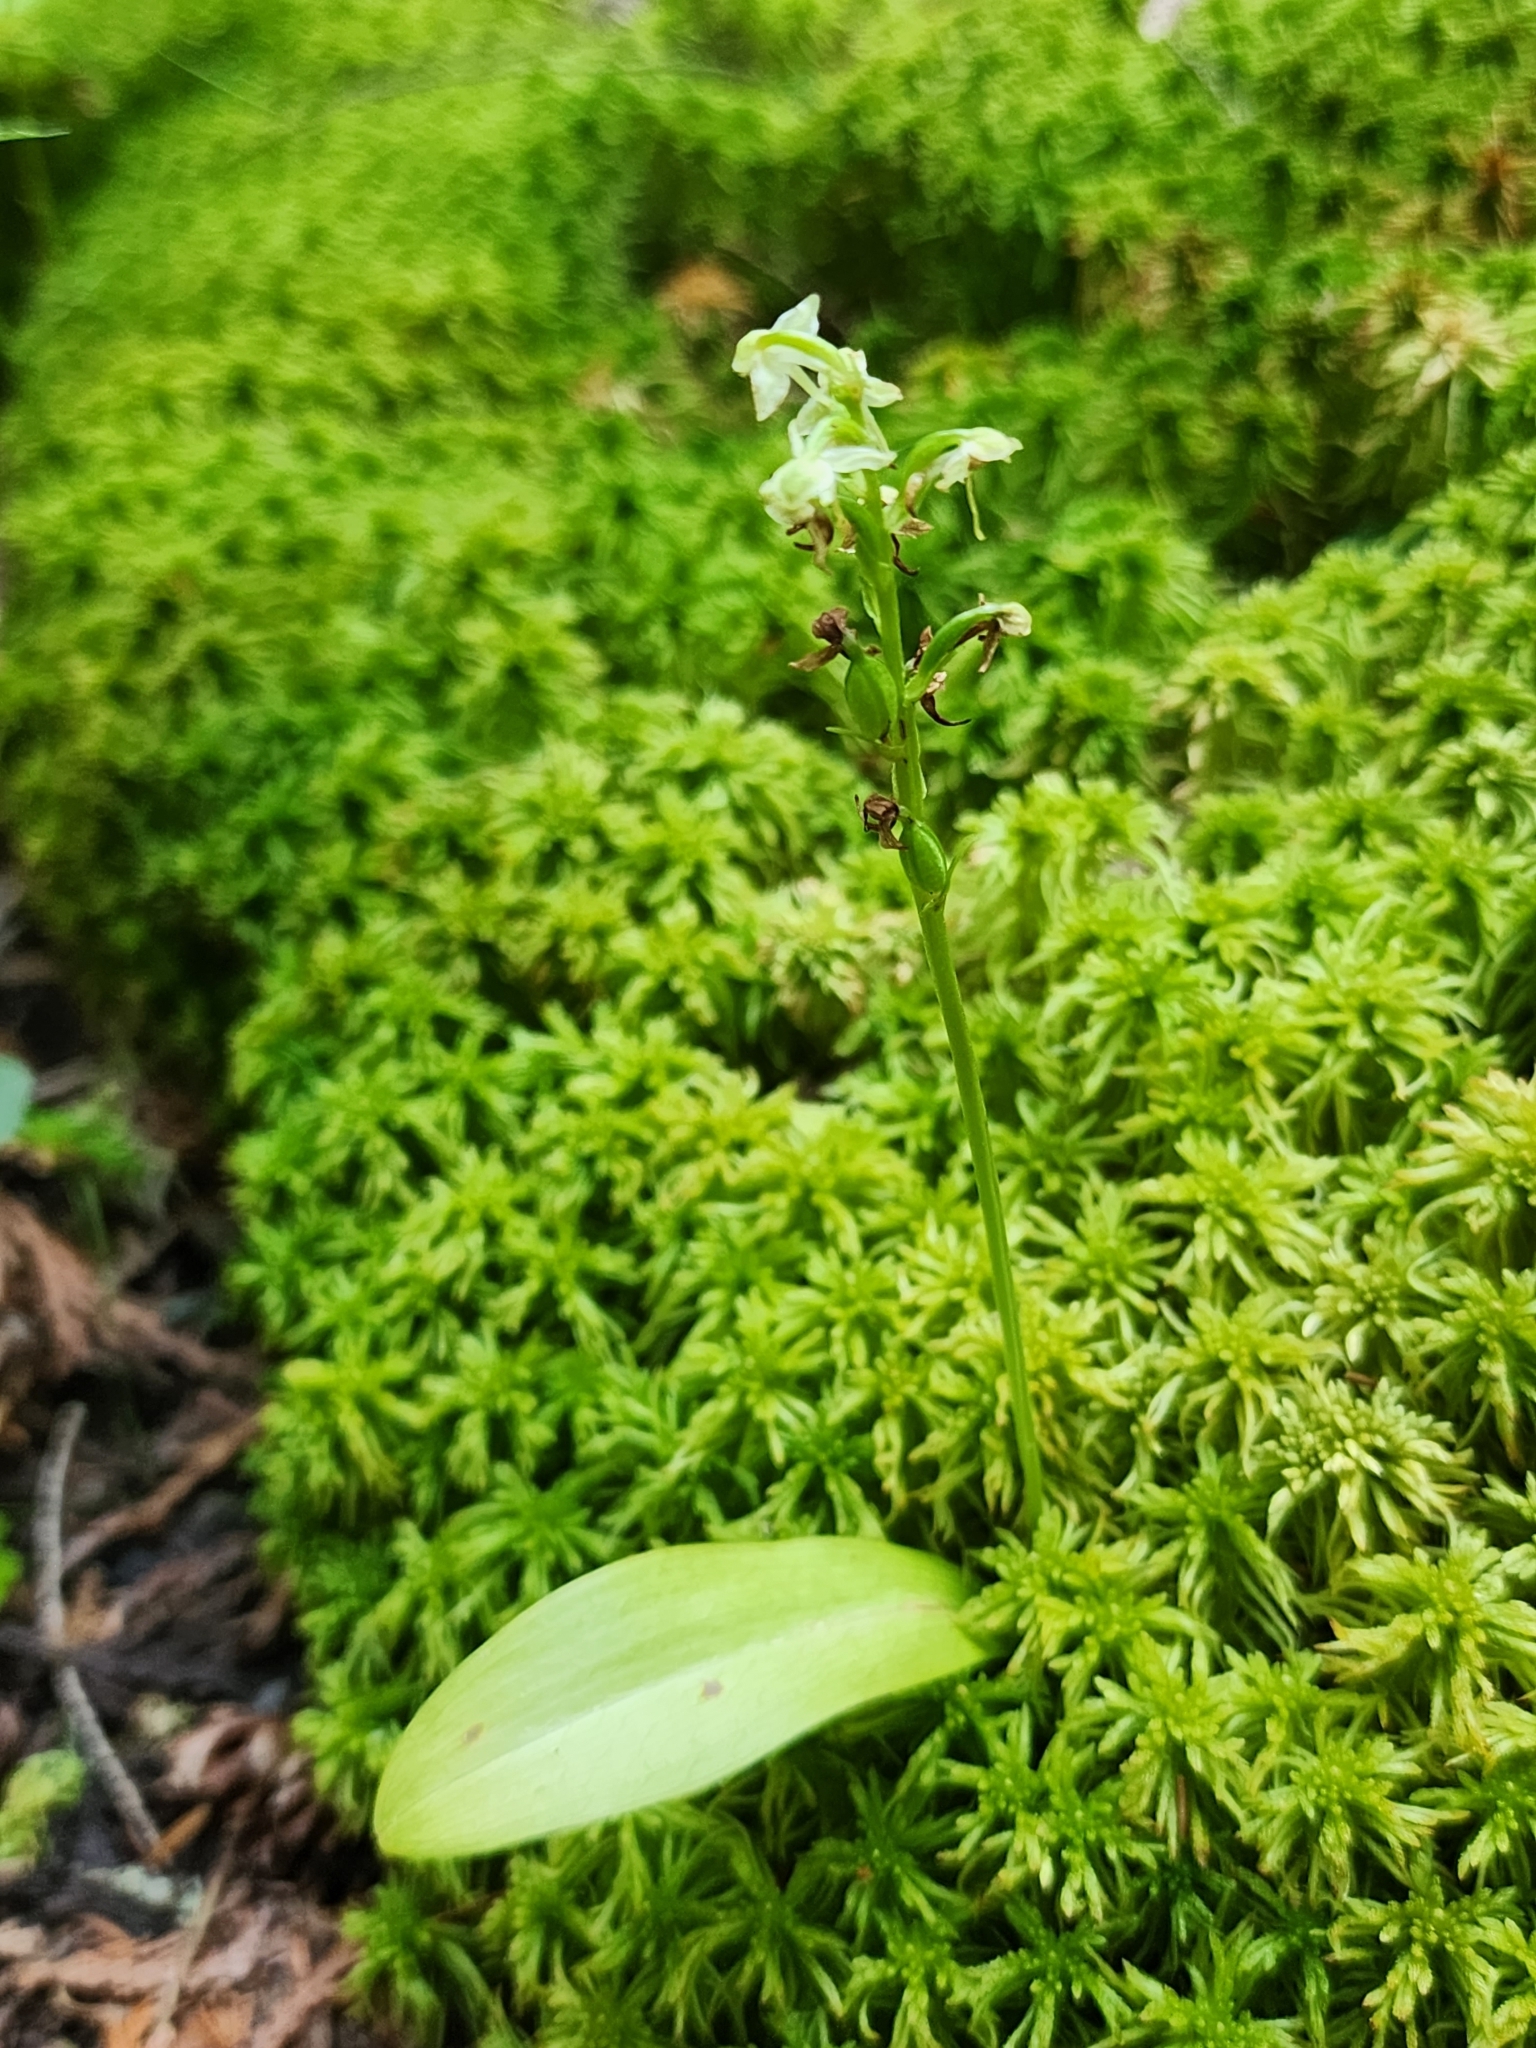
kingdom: Plantae
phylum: Tracheophyta
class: Liliopsida
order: Asparagales
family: Orchidaceae
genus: Platanthera
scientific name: Platanthera obtusata
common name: Blunt bog orchid
